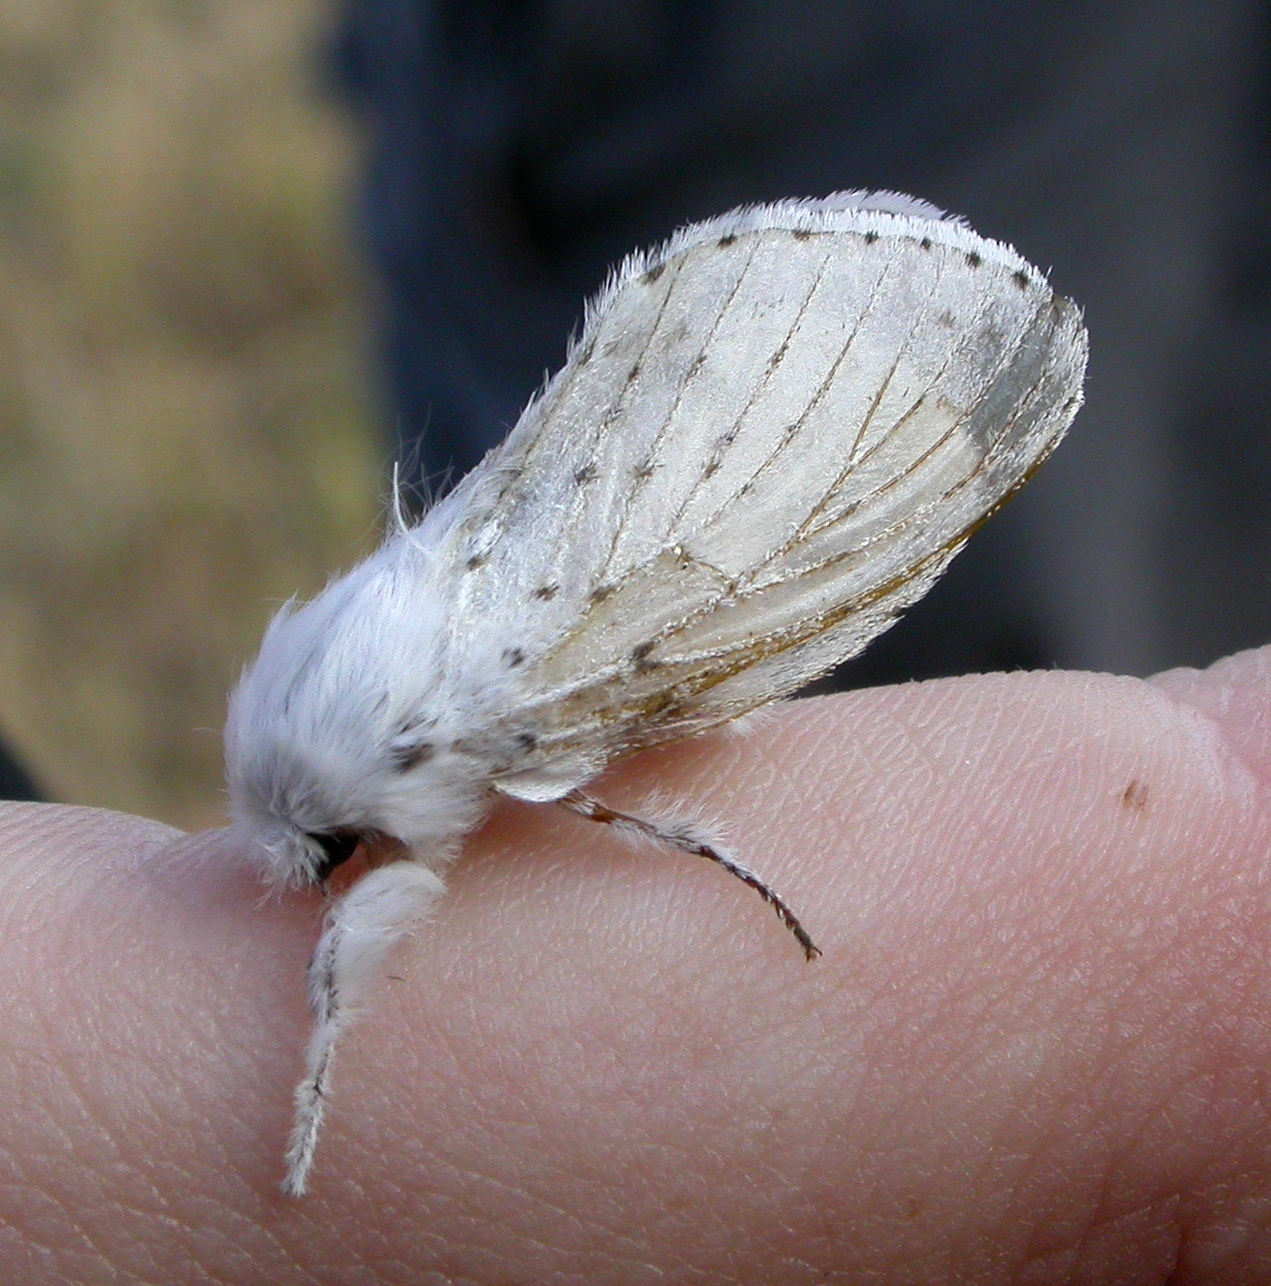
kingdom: Animalia
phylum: Arthropoda
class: Insecta
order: Lepidoptera
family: Lasiocampidae
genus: Artace
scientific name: Artace cribrarius
